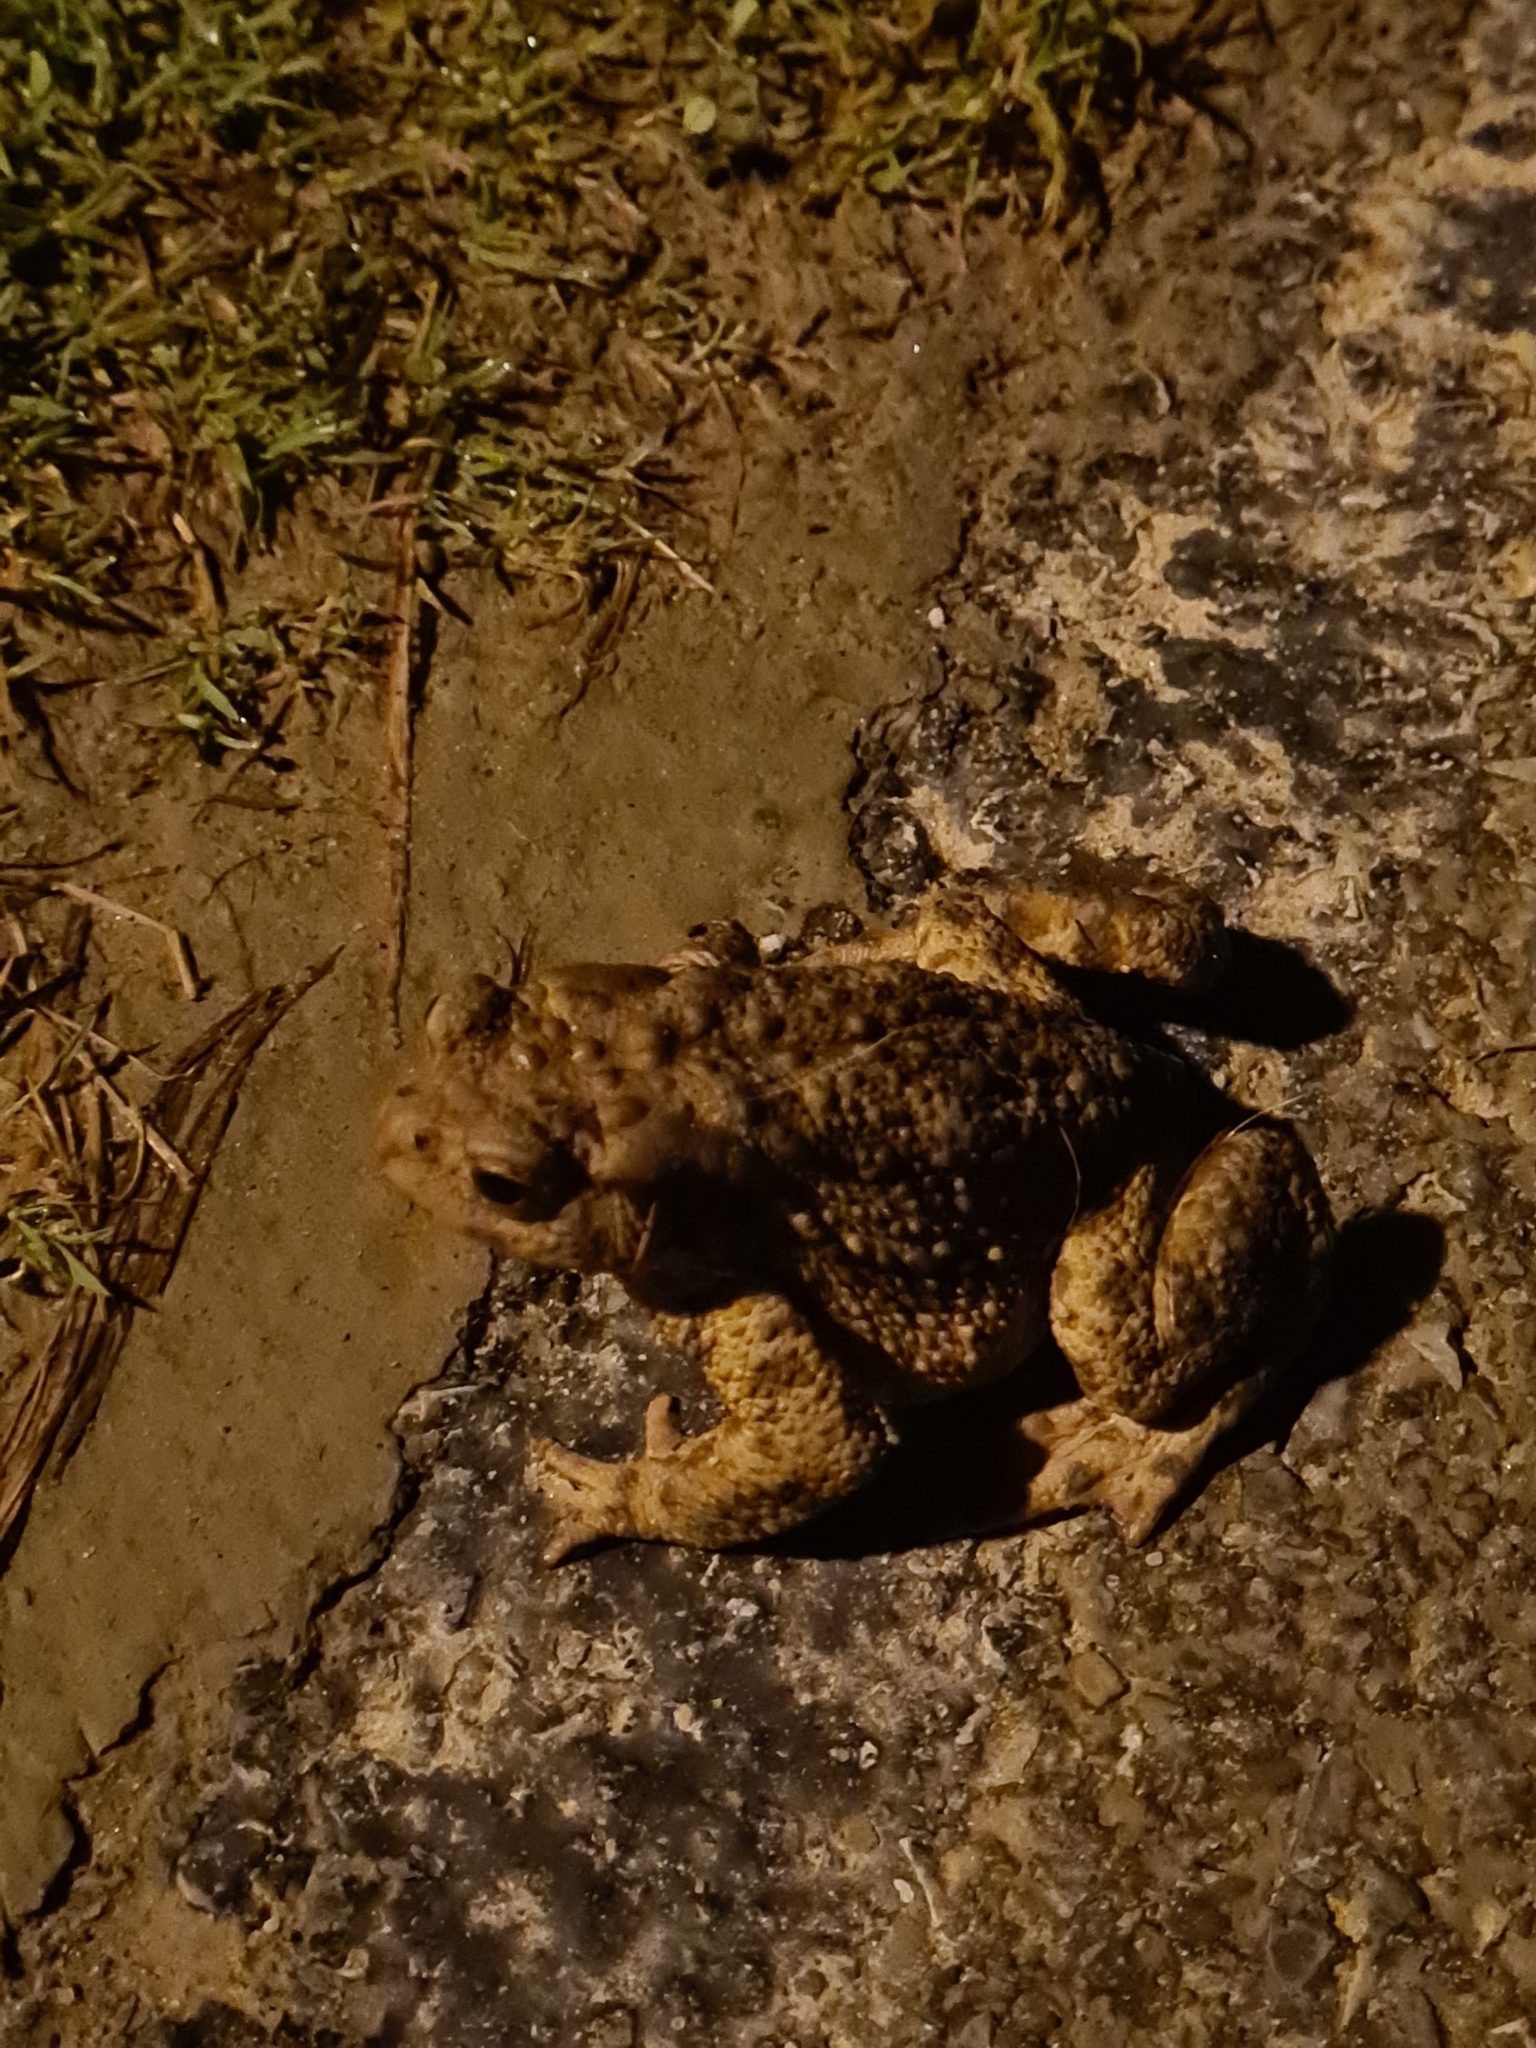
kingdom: Animalia
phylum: Chordata
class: Amphibia
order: Anura
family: Bufonidae
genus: Bufo
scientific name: Bufo bufo
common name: Common toad
